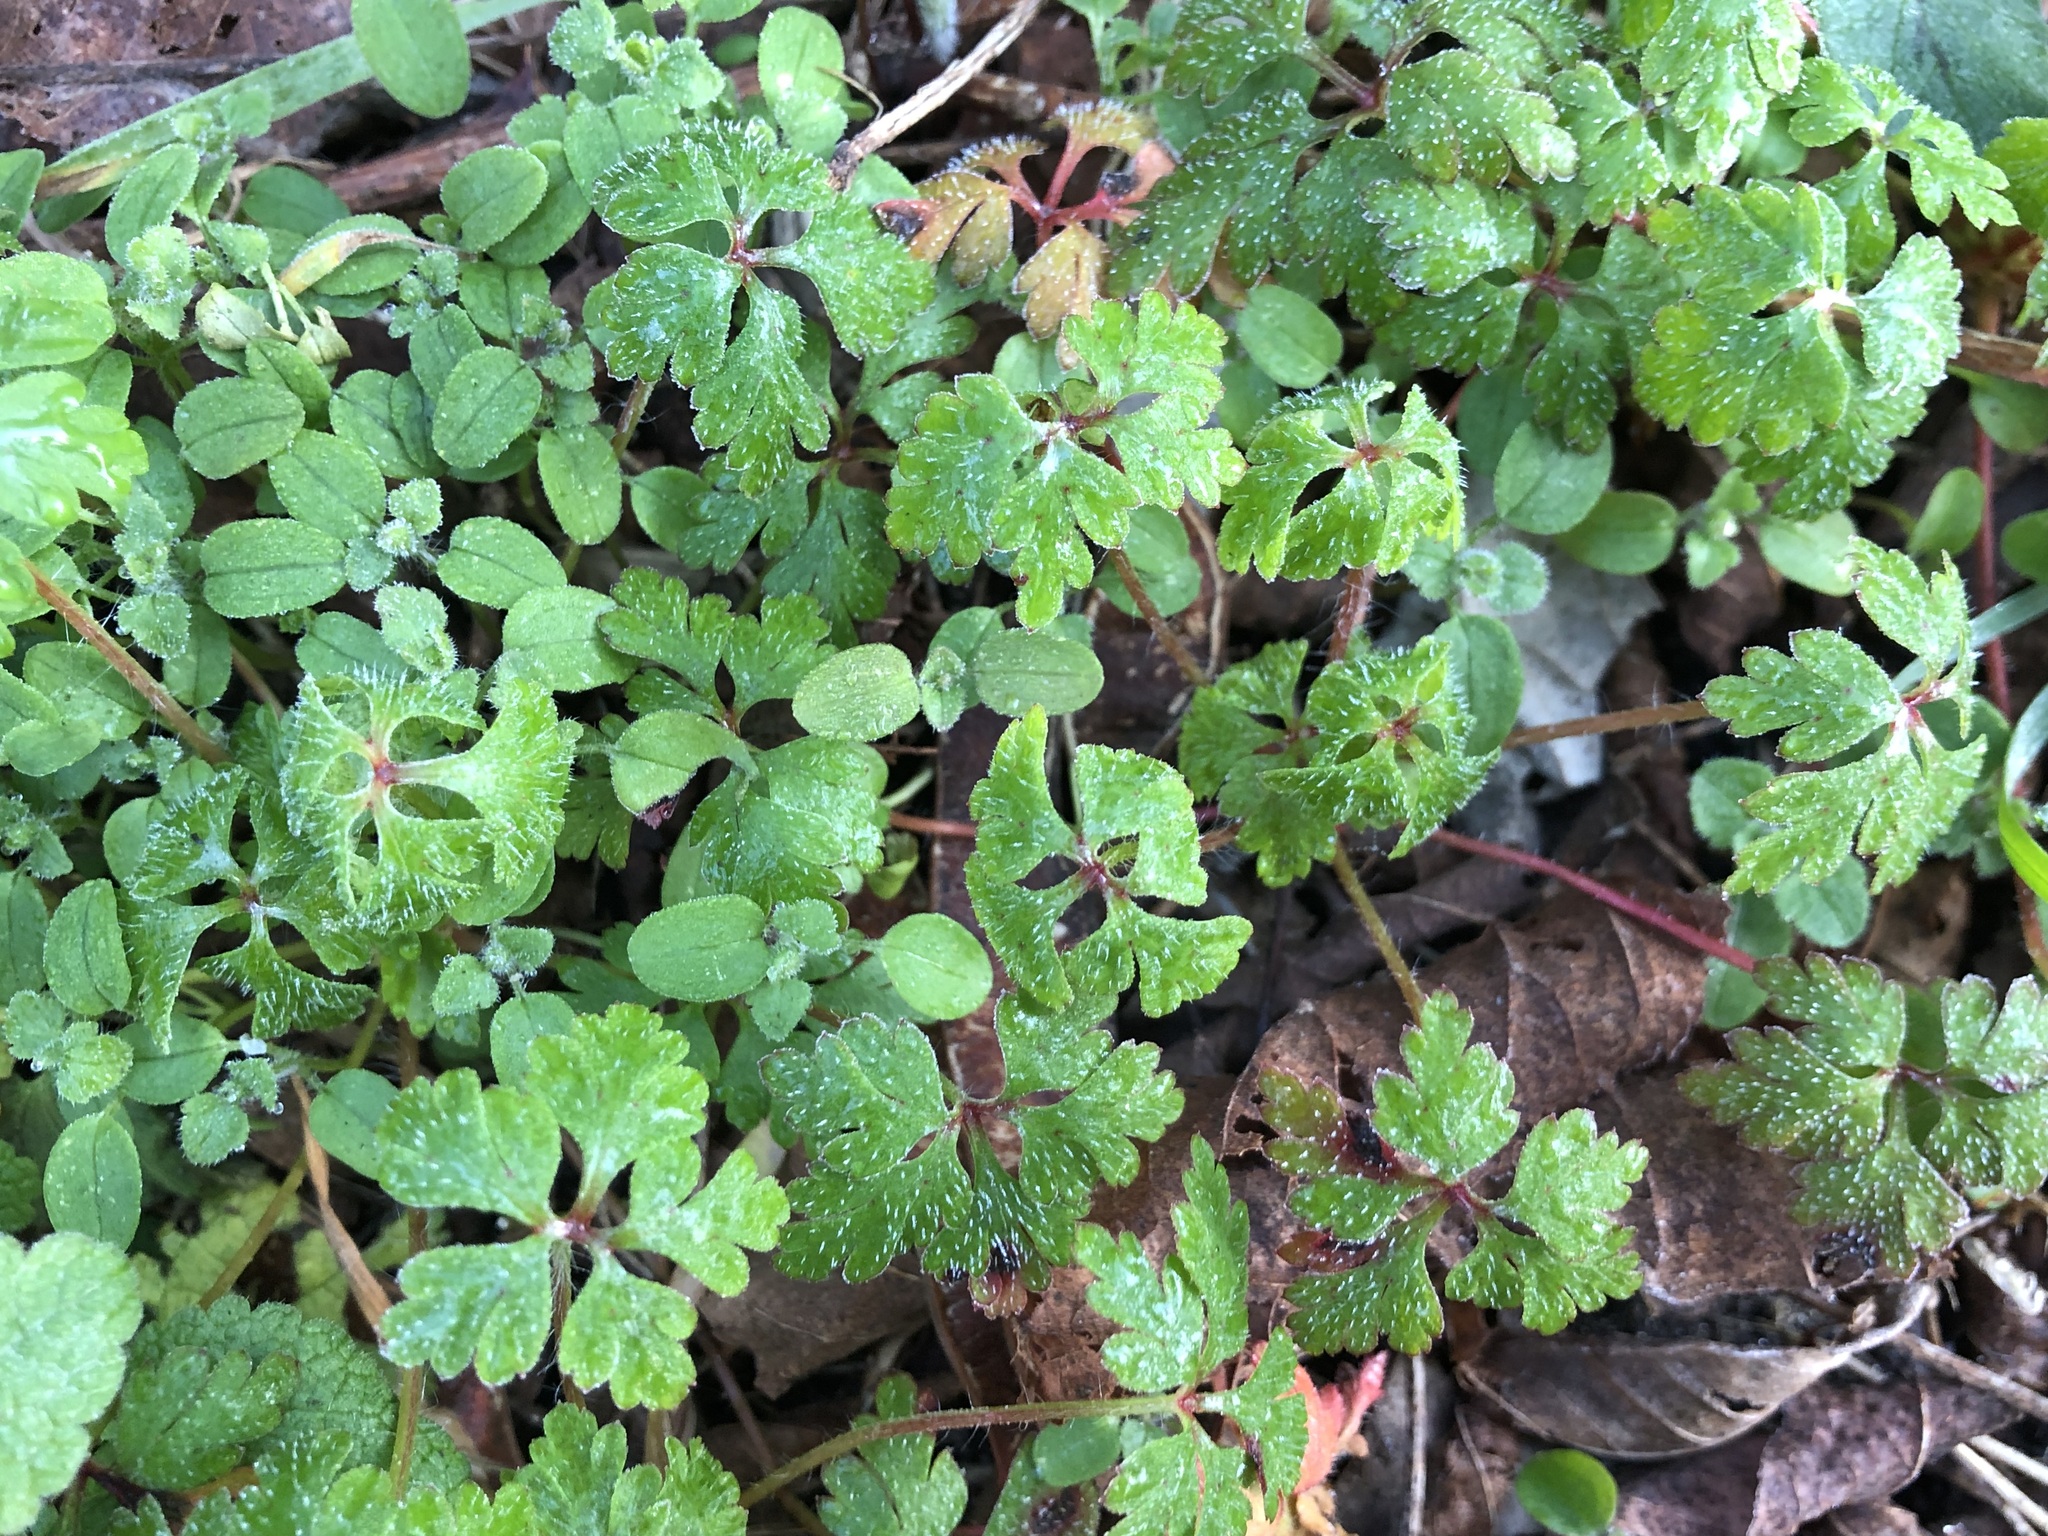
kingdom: Plantae
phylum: Tracheophyta
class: Magnoliopsida
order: Geraniales
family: Geraniaceae
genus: Geranium
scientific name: Geranium robertianum
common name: Herb-robert
